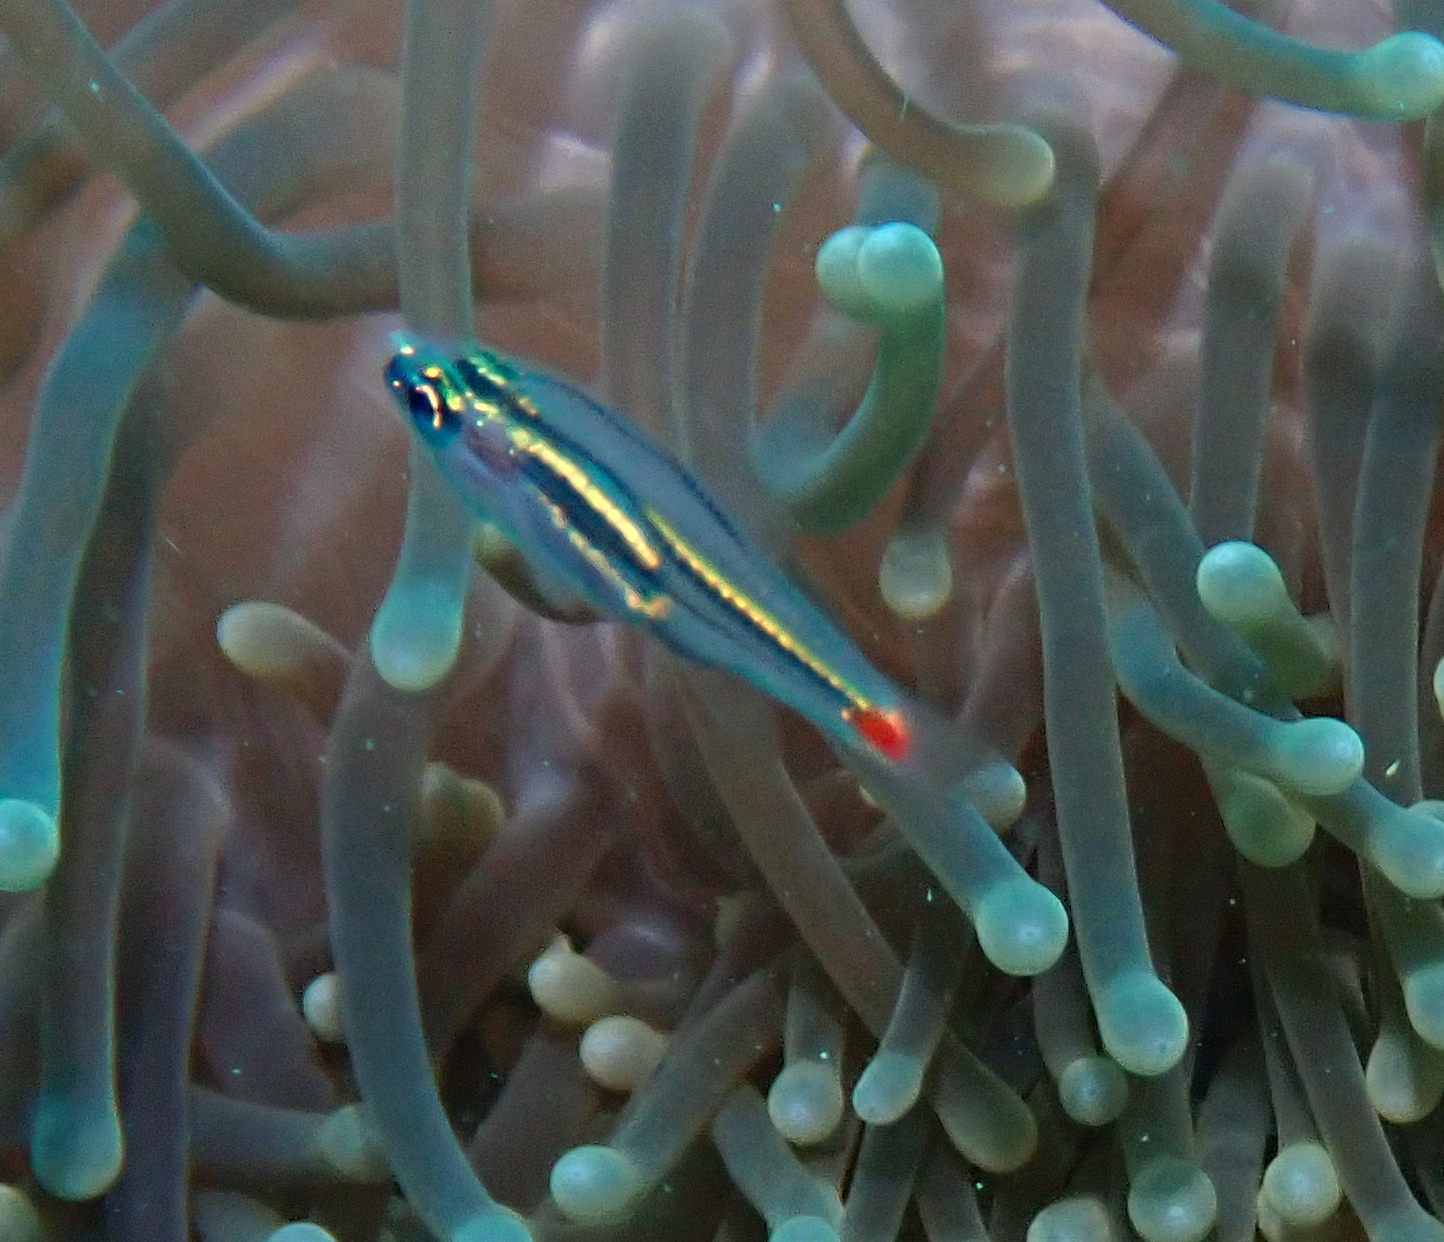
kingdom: Animalia
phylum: Chordata
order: Perciformes
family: Apogonidae
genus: Ostorhinchus
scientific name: Ostorhinchus parvulus
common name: Red-spot cardinalfish
